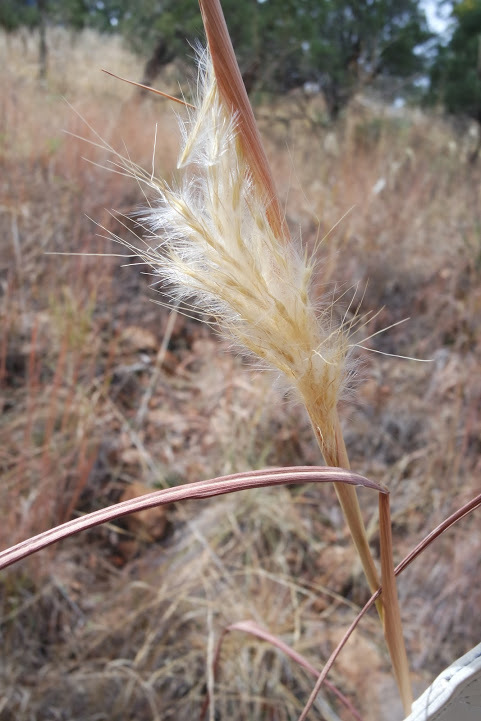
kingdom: Plantae
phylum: Tracheophyta
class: Liliopsida
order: Poales
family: Poaceae
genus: Bothriochloa
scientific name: Bothriochloa barbinodis
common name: Cane bluestem
